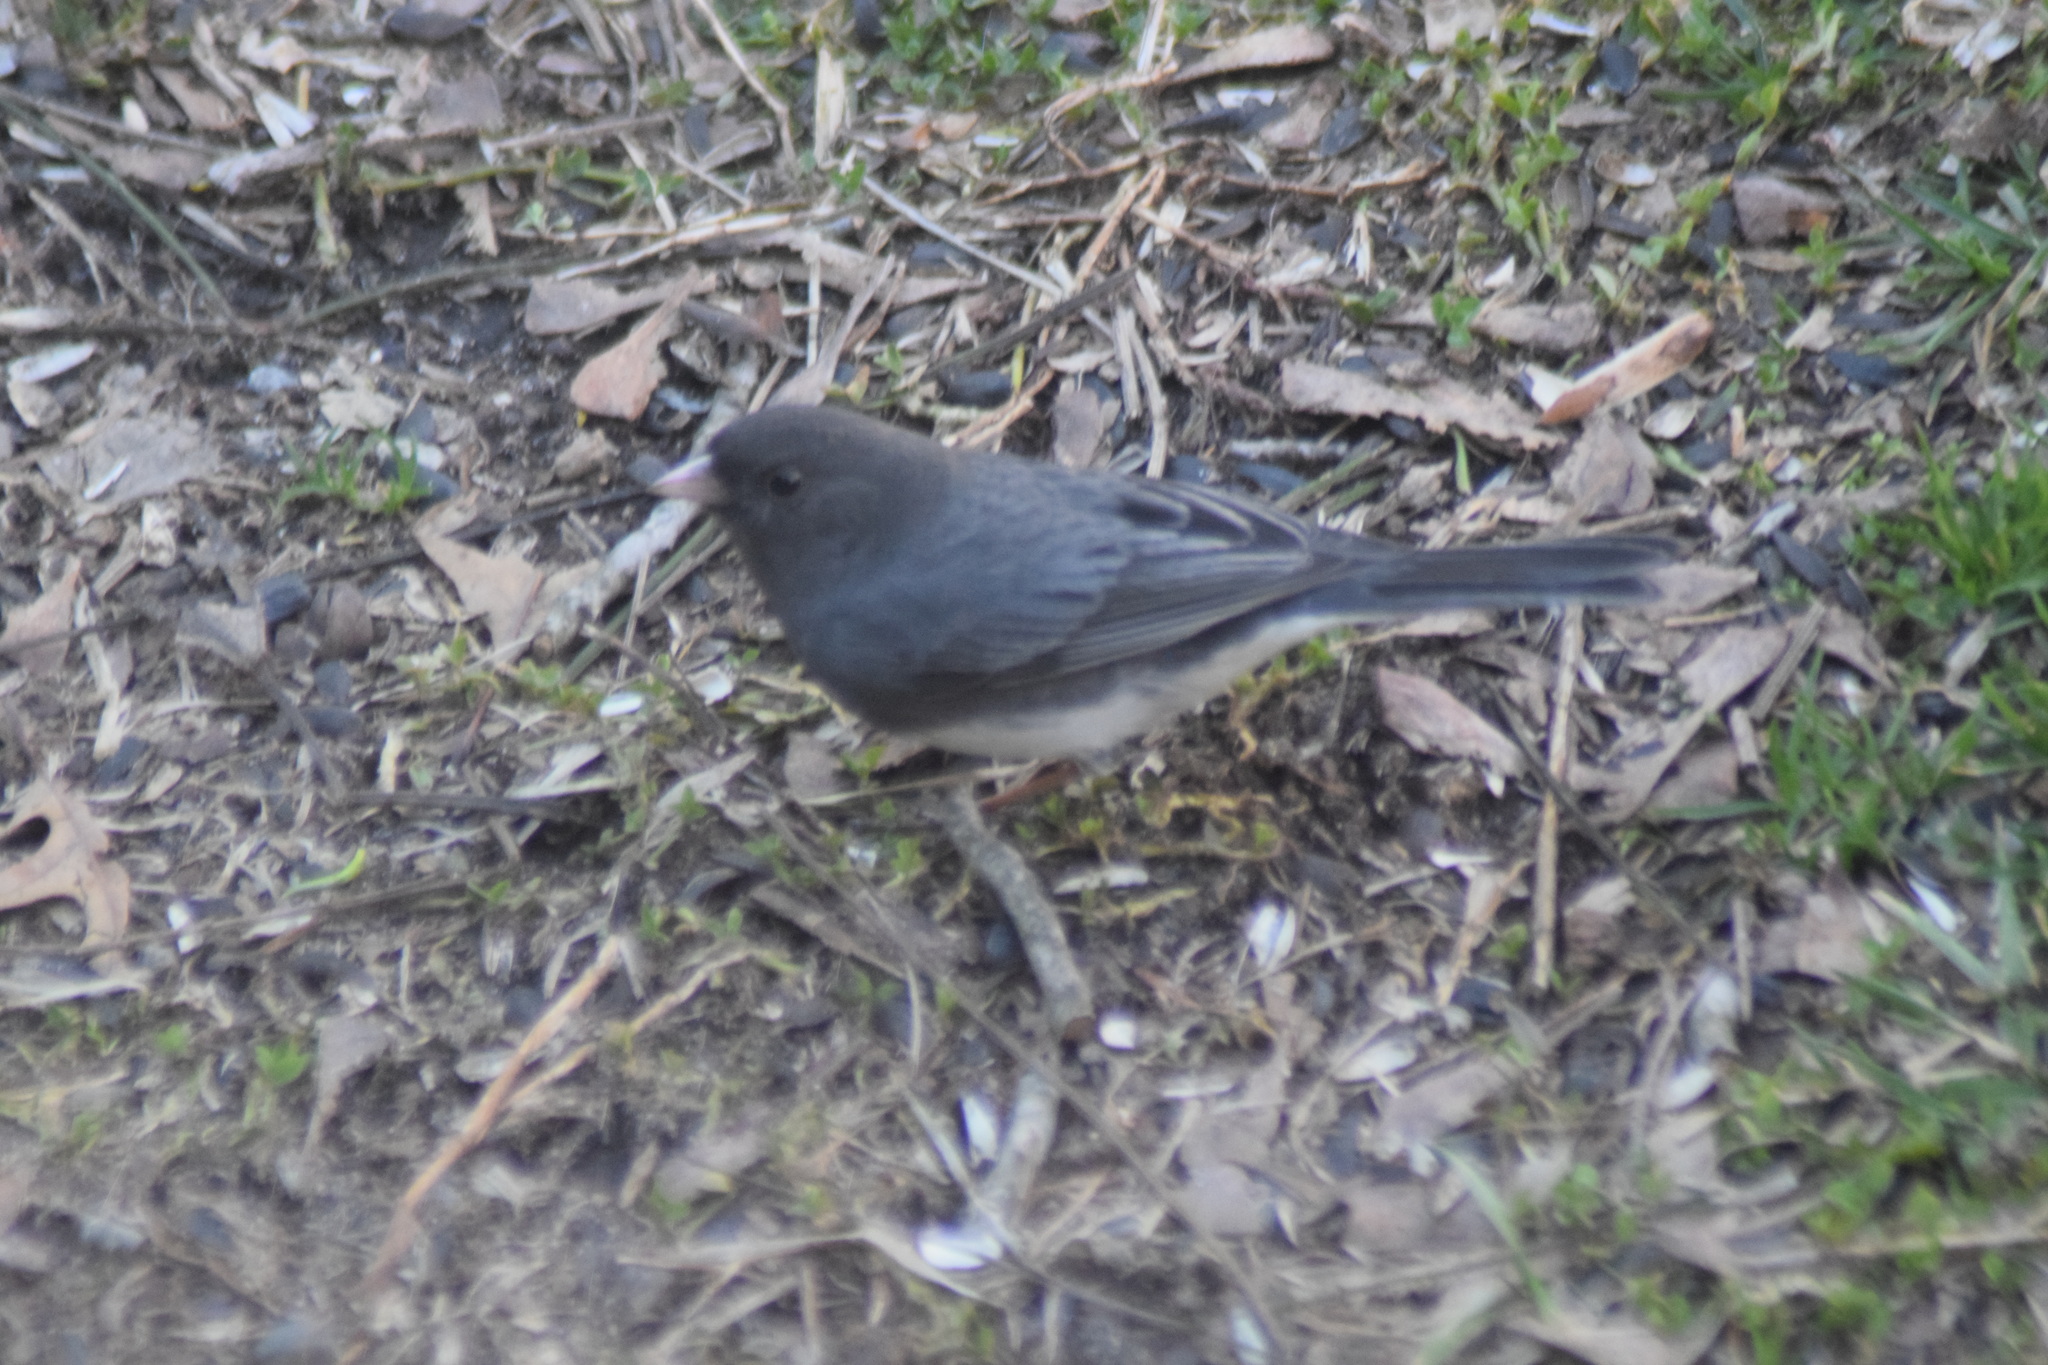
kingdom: Animalia
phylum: Chordata
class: Aves
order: Passeriformes
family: Passerellidae
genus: Junco
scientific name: Junco hyemalis
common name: Dark-eyed junco
